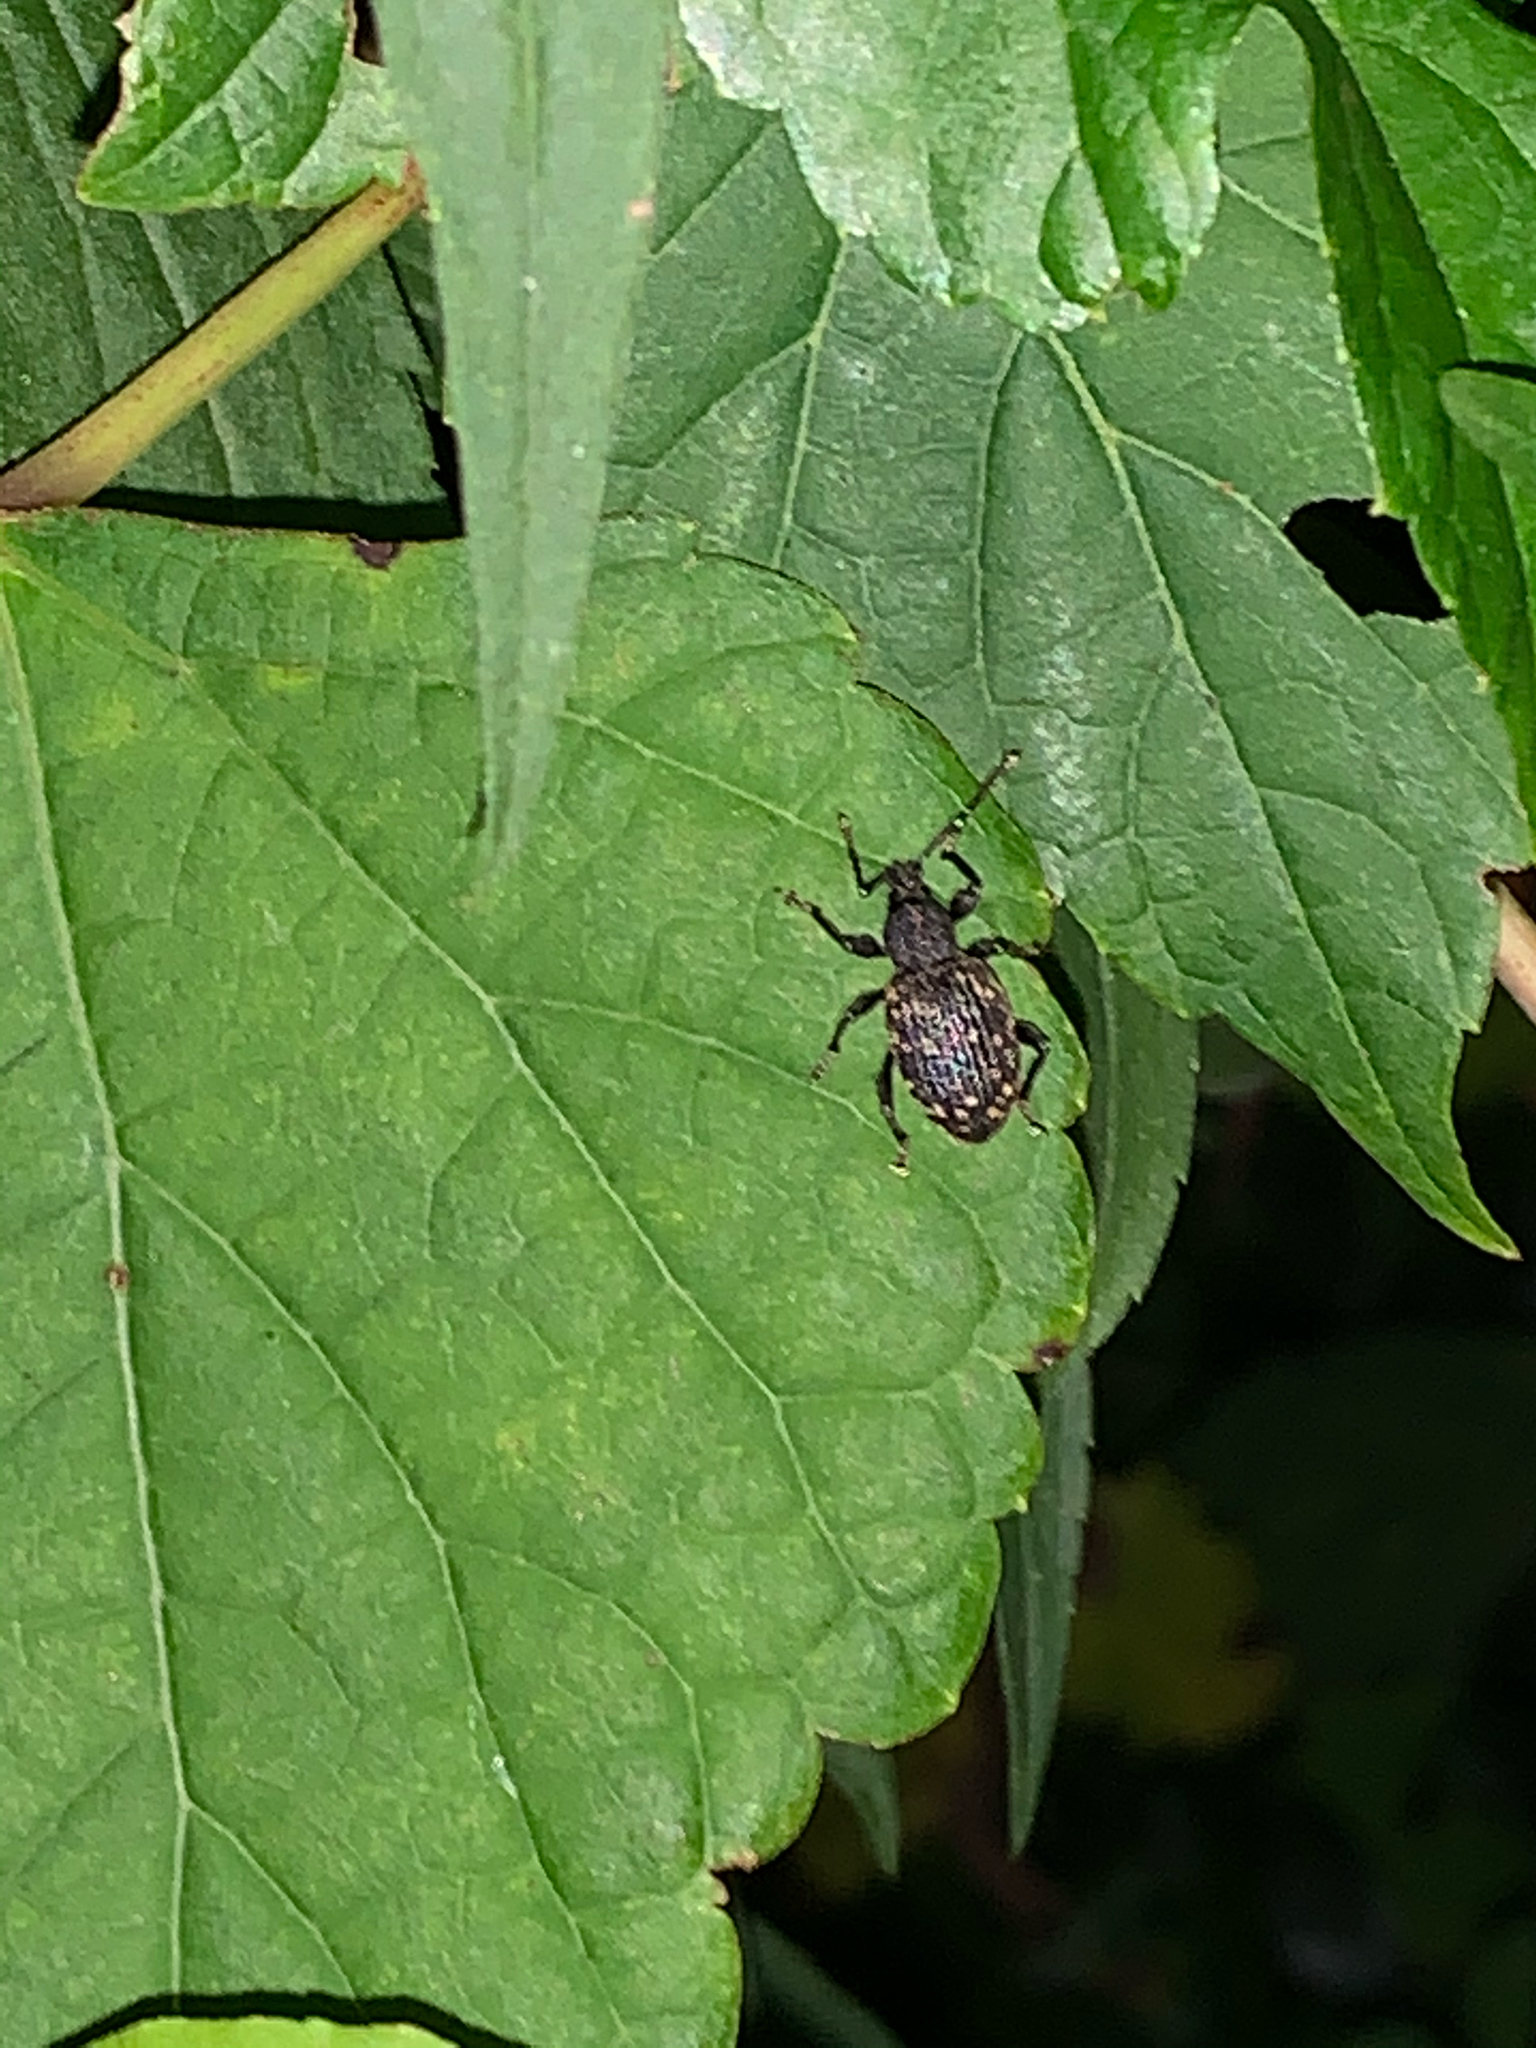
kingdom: Animalia
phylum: Arthropoda
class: Insecta
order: Coleoptera
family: Curculionidae
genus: Otiorhynchus
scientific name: Otiorhynchus sulcatus
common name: Black vine weevil
